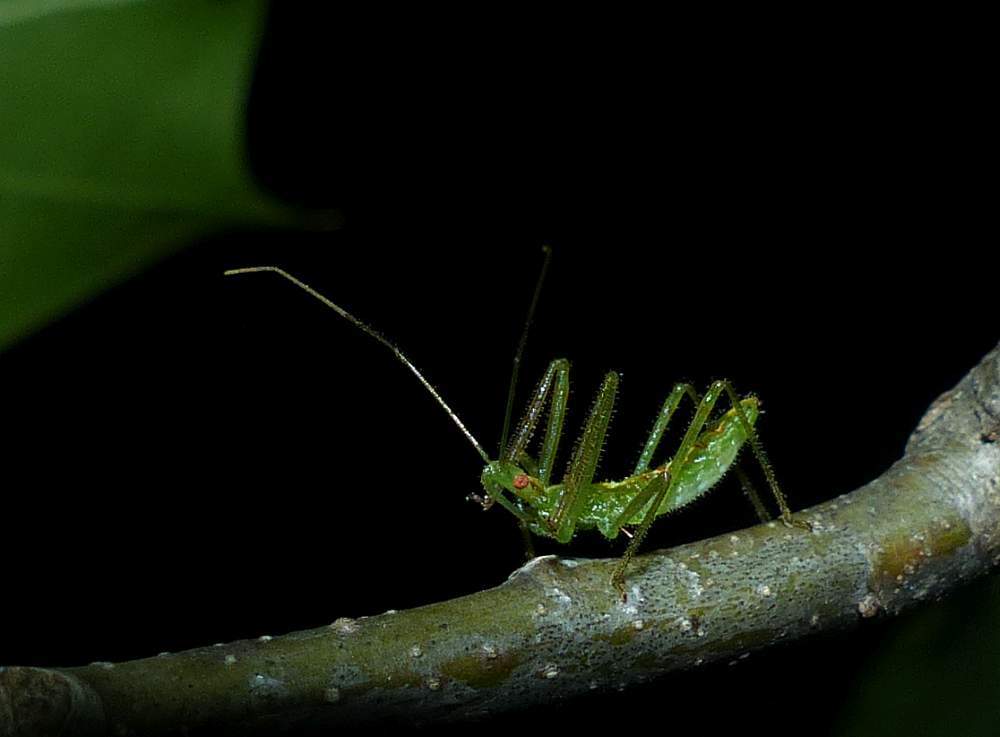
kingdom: Animalia
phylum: Arthropoda
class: Insecta
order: Hemiptera
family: Reduviidae
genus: Zelus
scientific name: Zelus luridus
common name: Pale green assassin bug
